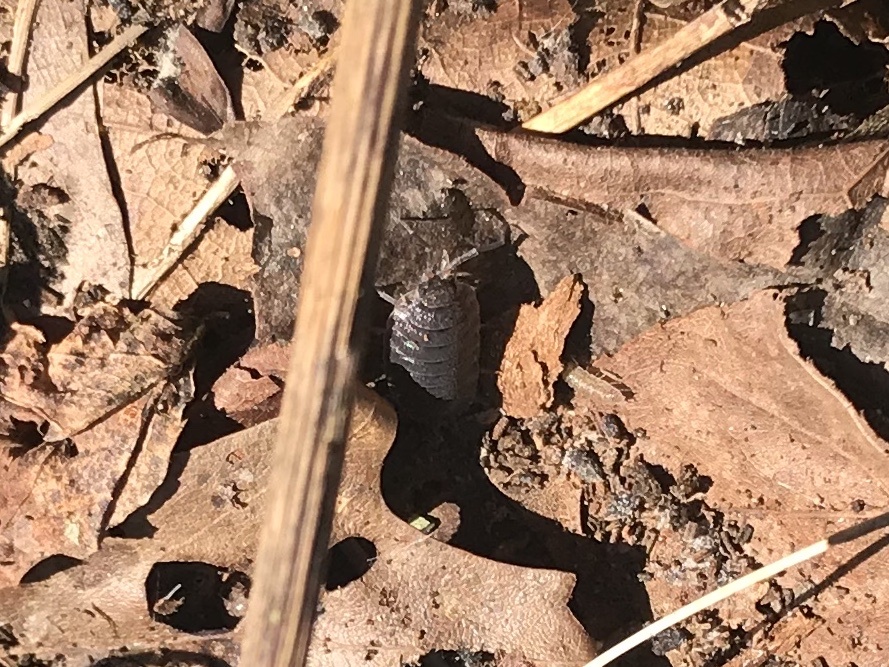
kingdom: Animalia
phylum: Arthropoda
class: Malacostraca
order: Isopoda
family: Porcellionidae
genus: Porcellio
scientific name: Porcellio scaber
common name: Common rough woodlouse
